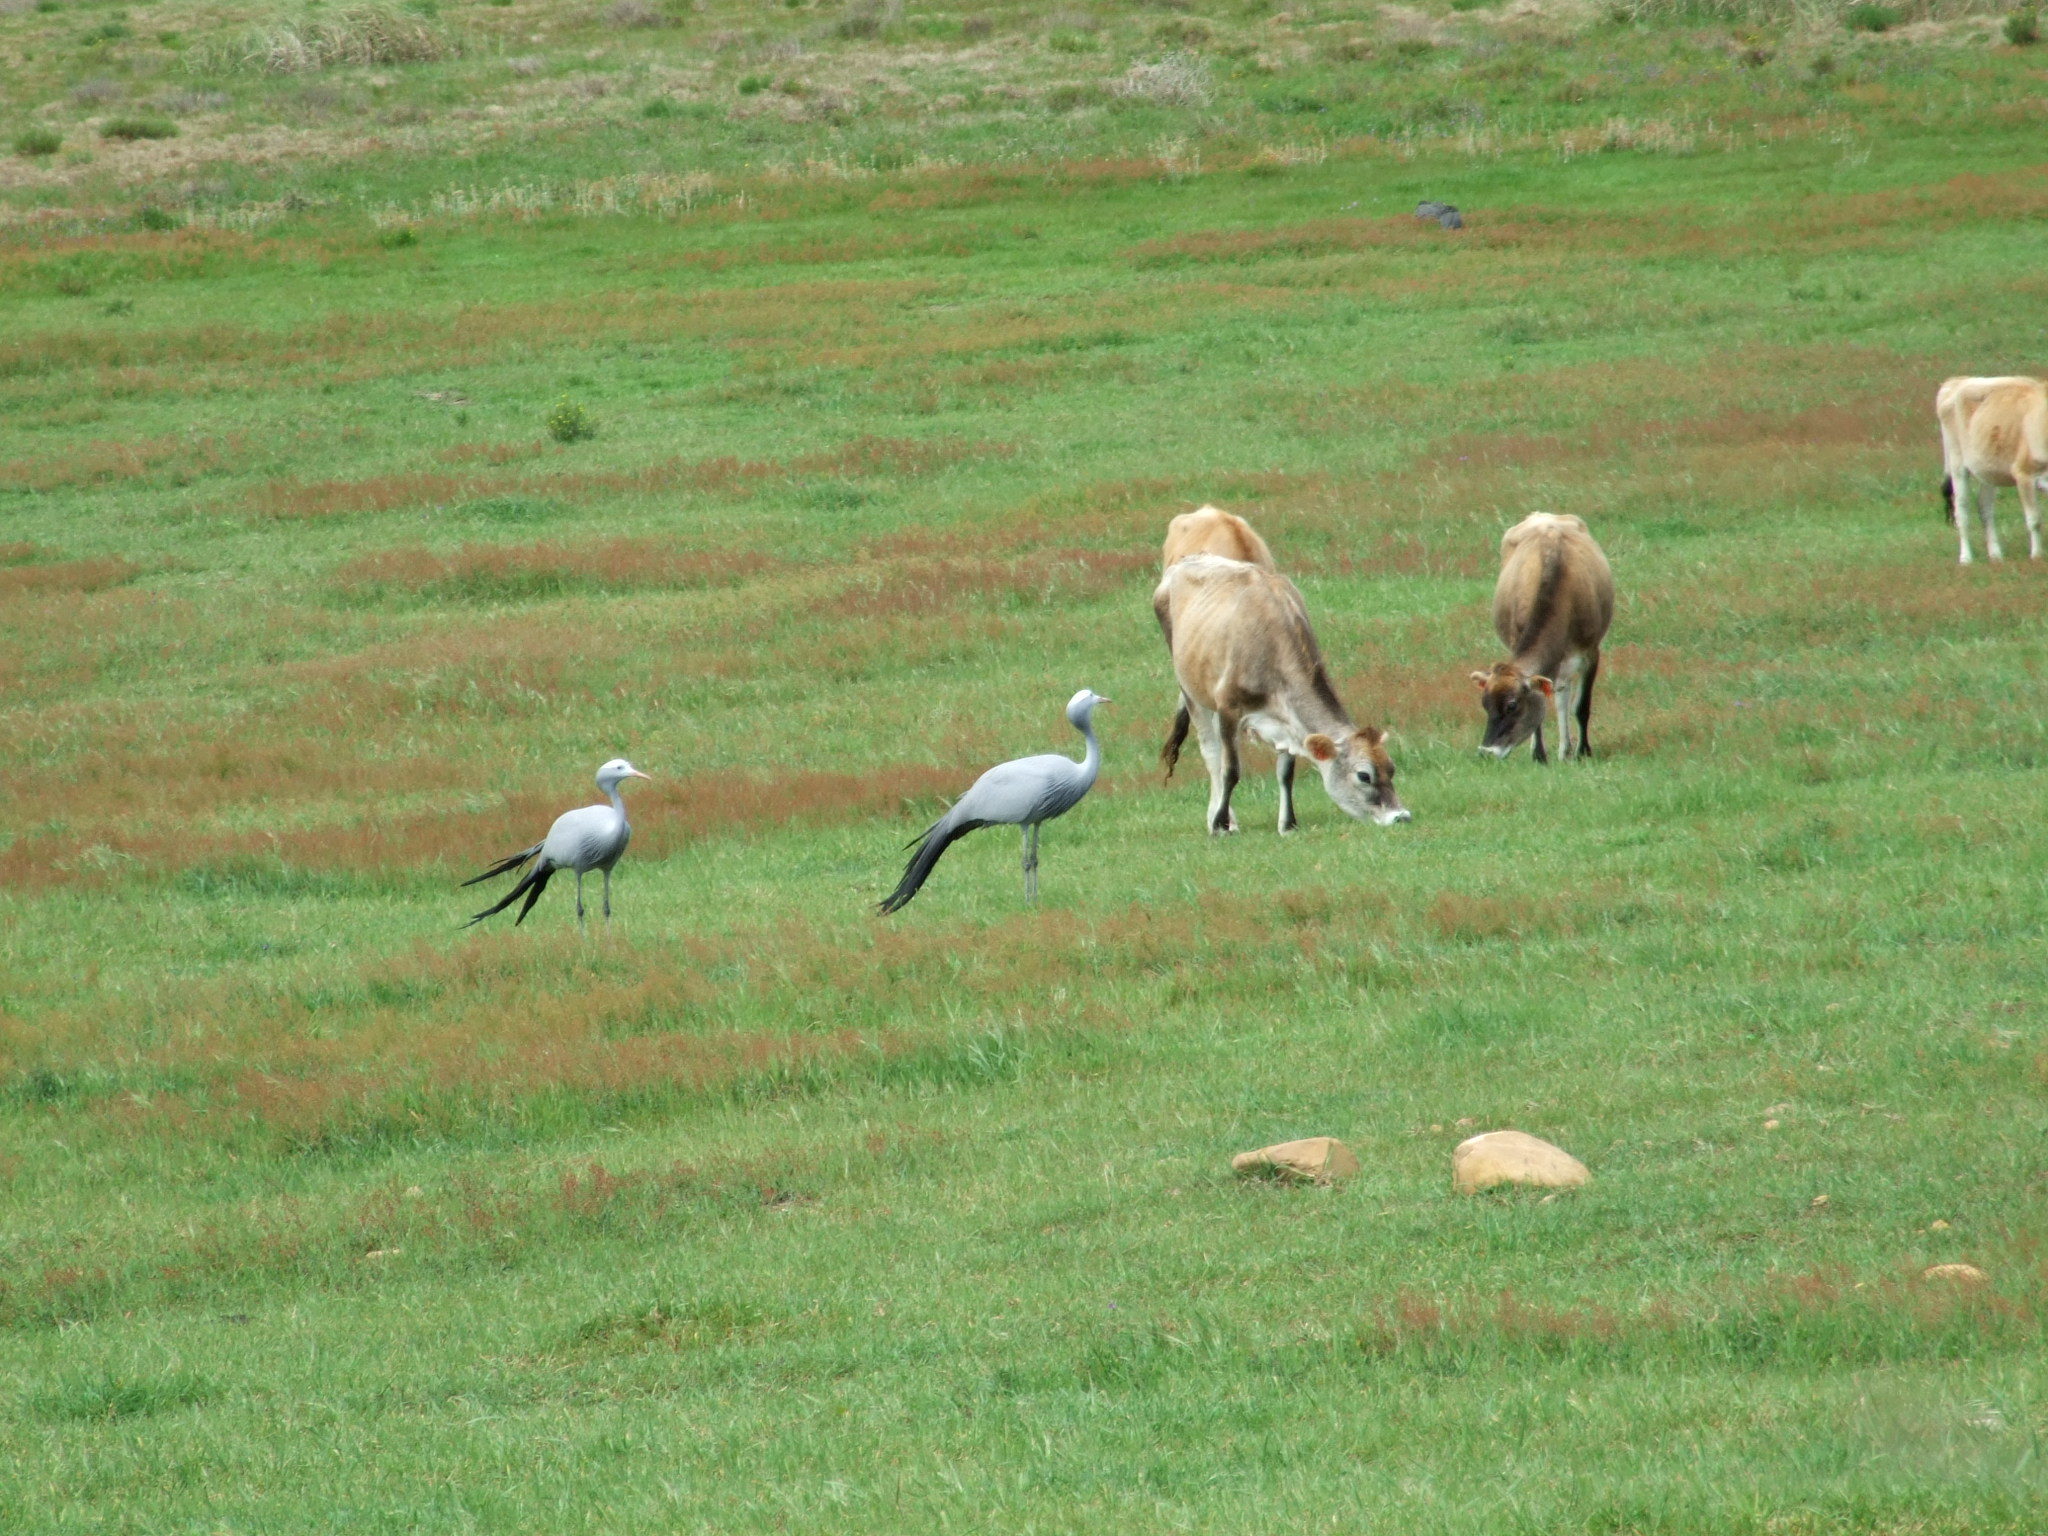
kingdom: Animalia
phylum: Chordata
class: Aves
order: Gruiformes
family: Gruidae
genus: Anthropoides
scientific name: Anthropoides paradiseus
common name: Blue crane
